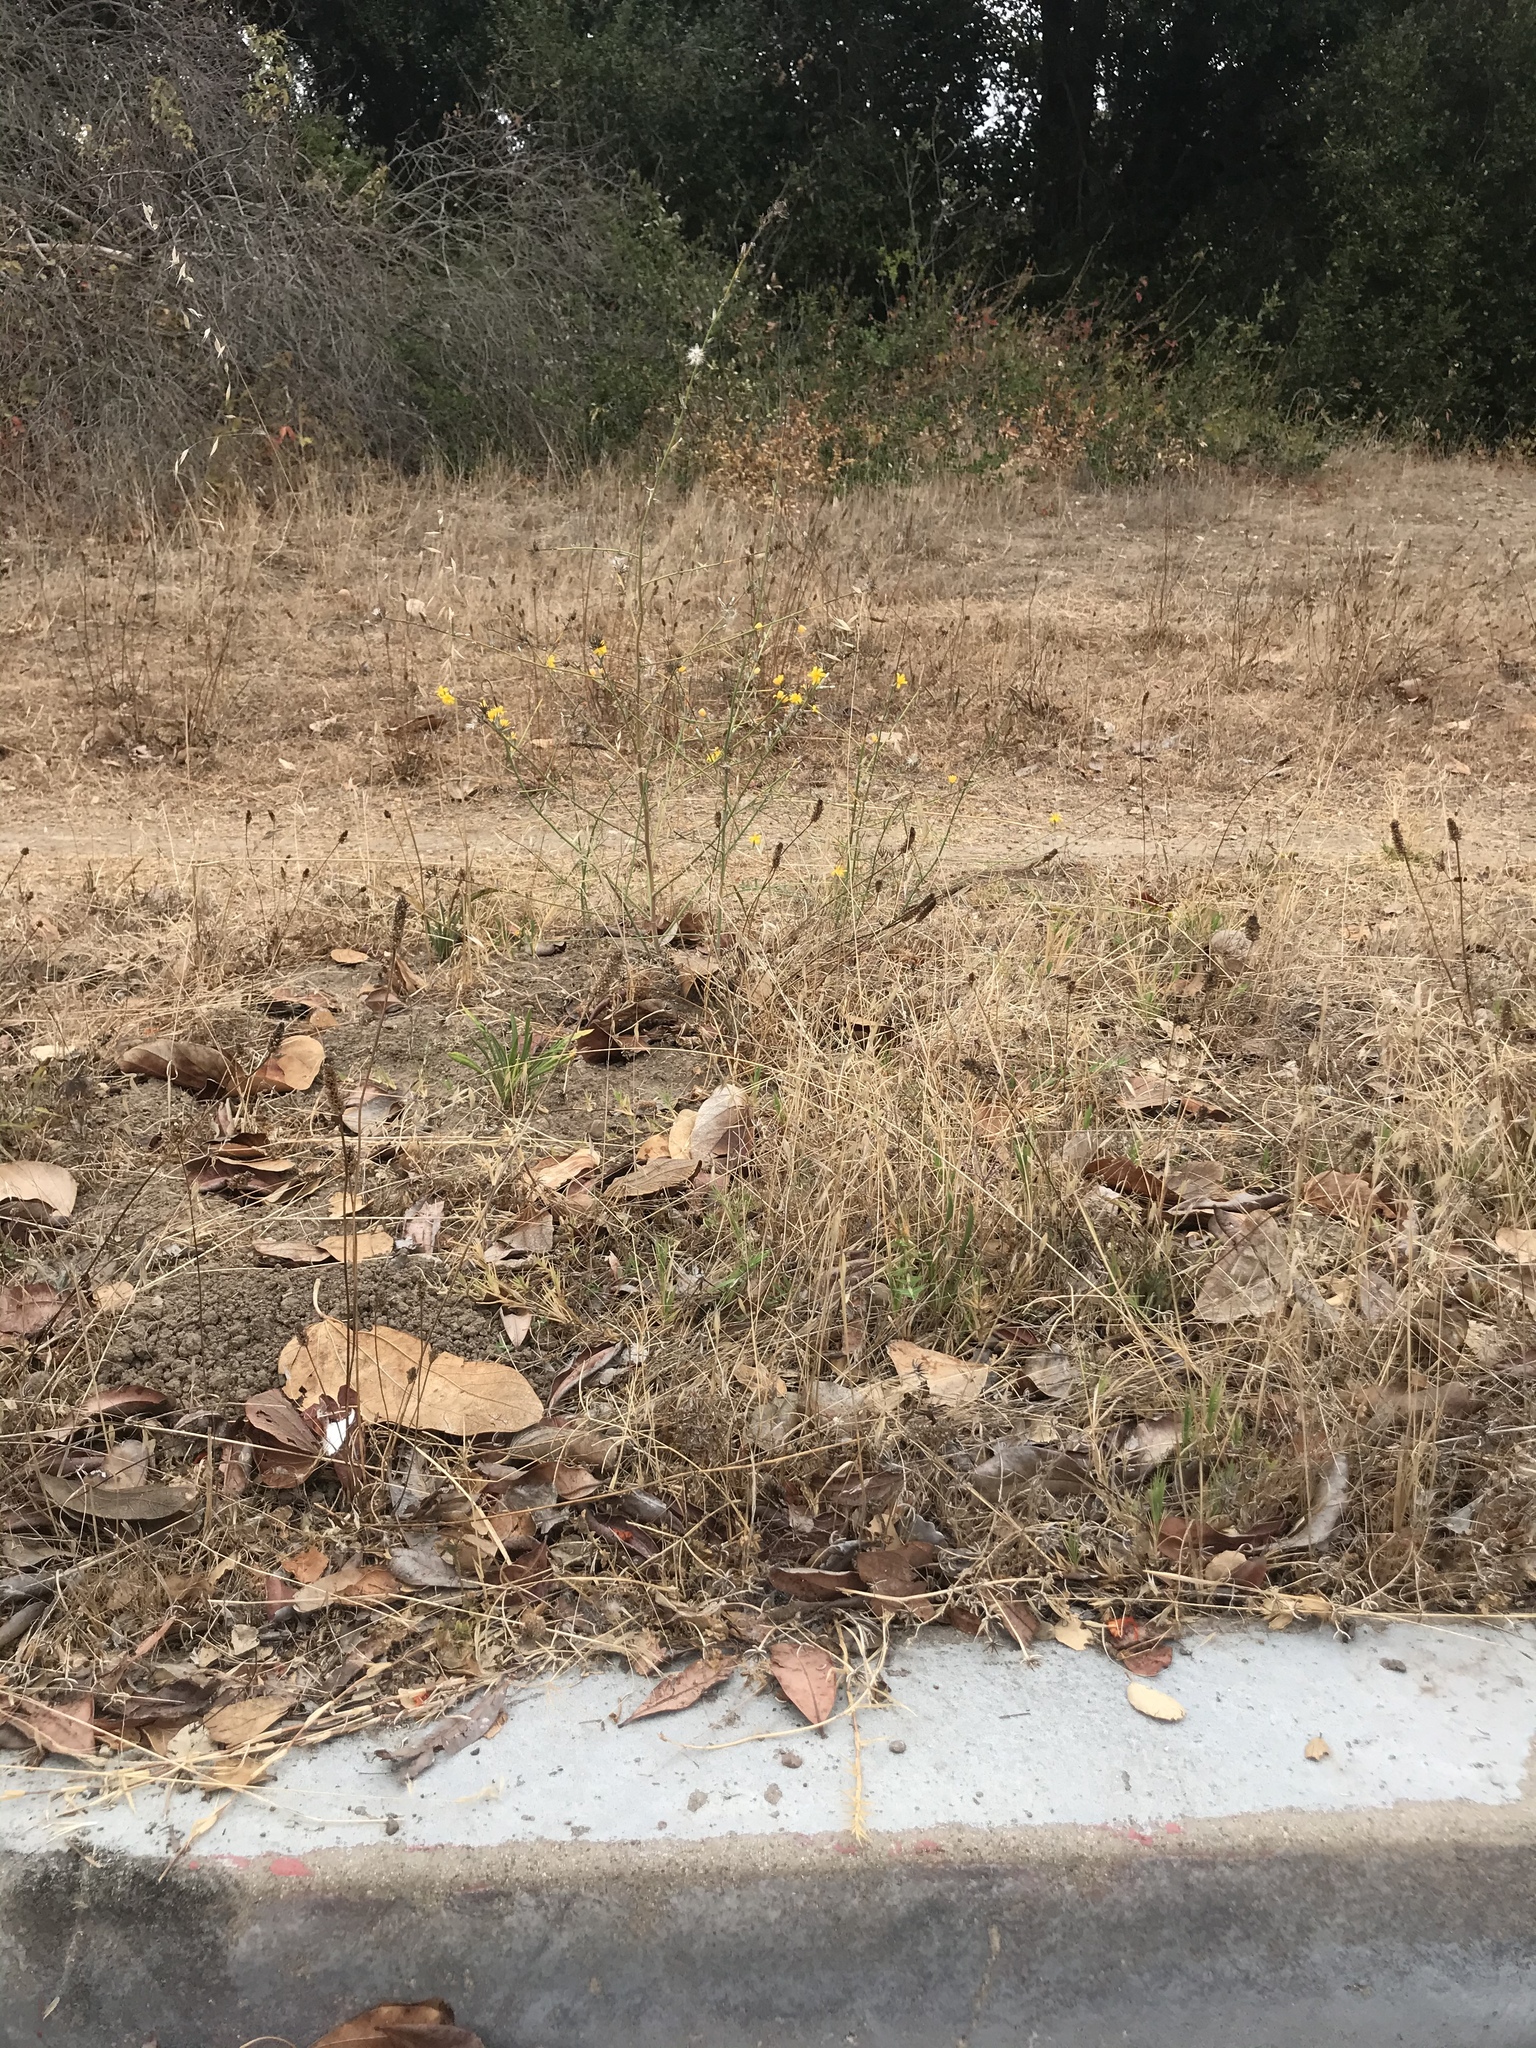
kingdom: Plantae
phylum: Tracheophyta
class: Magnoliopsida
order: Asterales
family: Asteraceae
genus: Chondrilla
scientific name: Chondrilla juncea
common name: Skeleton weed
